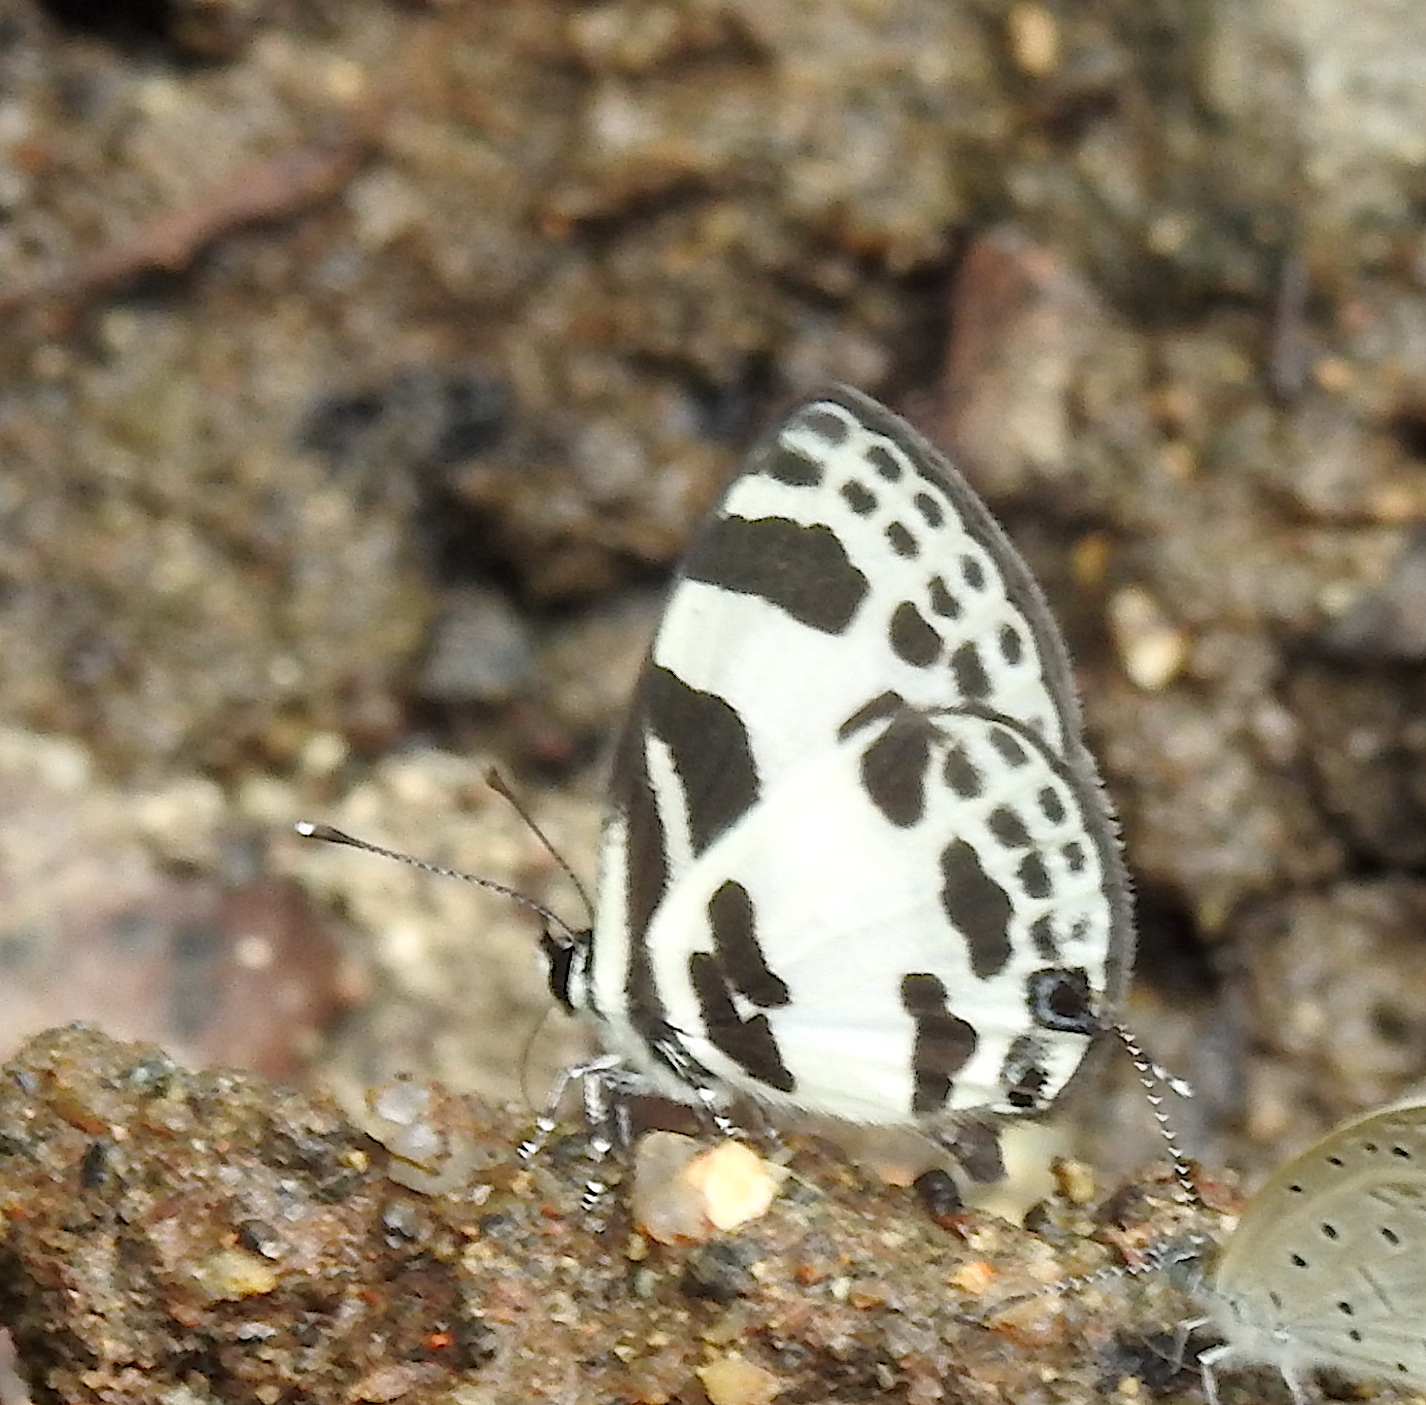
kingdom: Animalia
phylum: Arthropoda
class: Insecta
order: Lepidoptera
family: Lycaenidae
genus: Discolampa
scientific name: Discolampa ethion
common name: Banded blue pierrot
